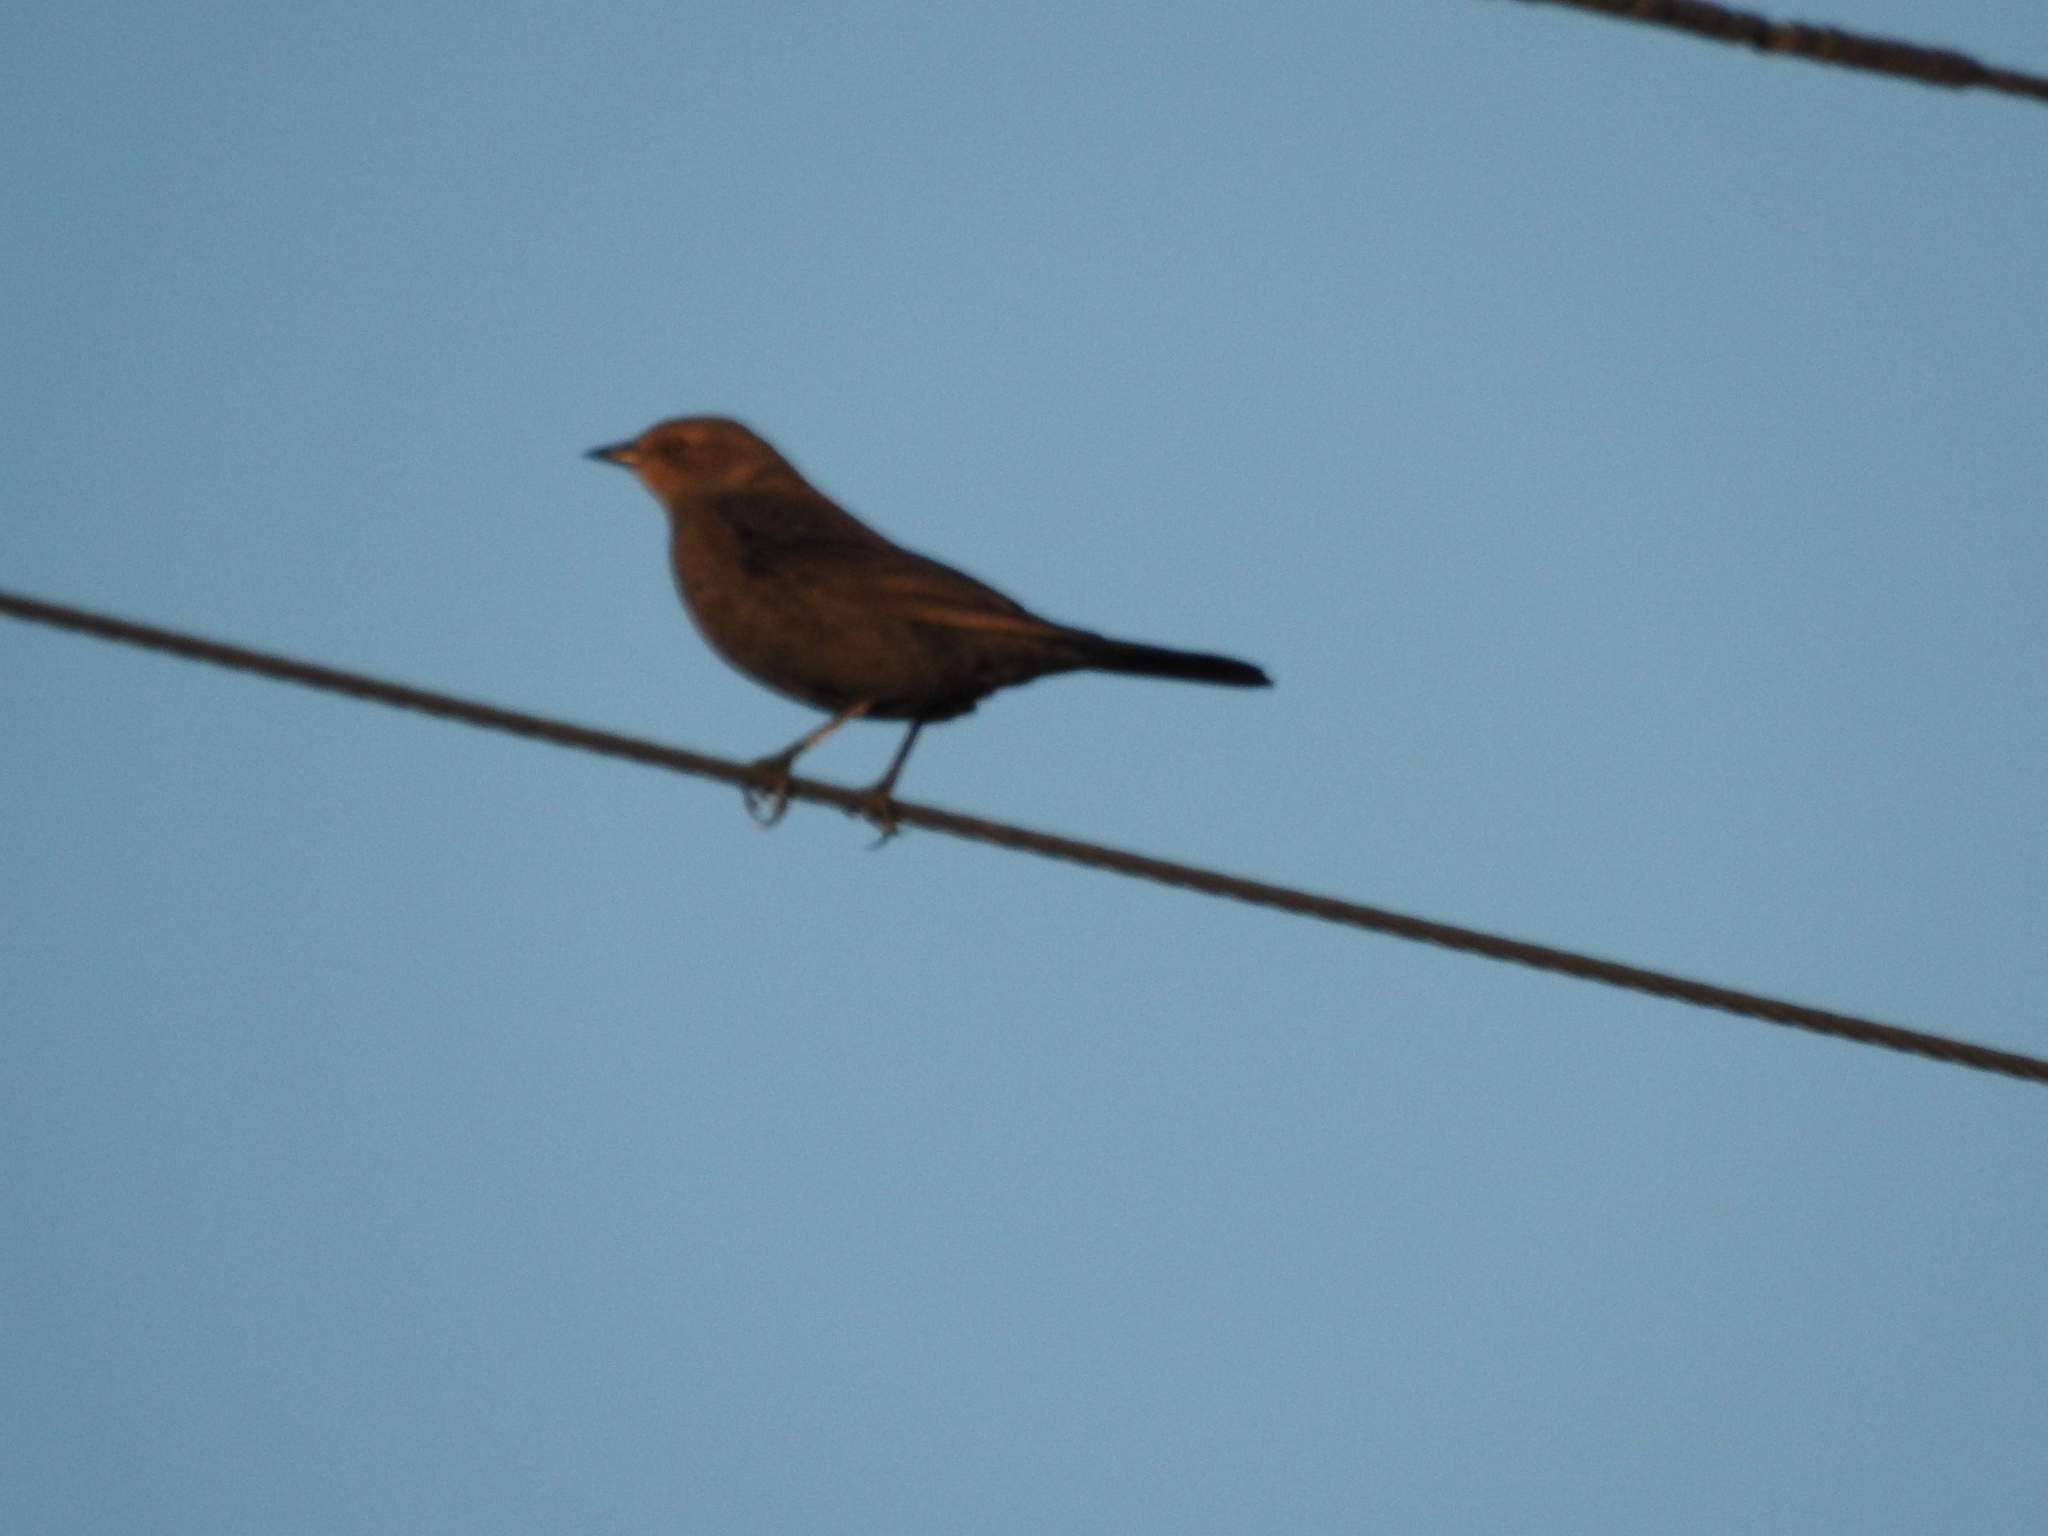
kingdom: Animalia
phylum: Chordata
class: Aves
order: Passeriformes
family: Icteridae
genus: Euphagus
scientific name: Euphagus cyanocephalus
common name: Brewer's blackbird
